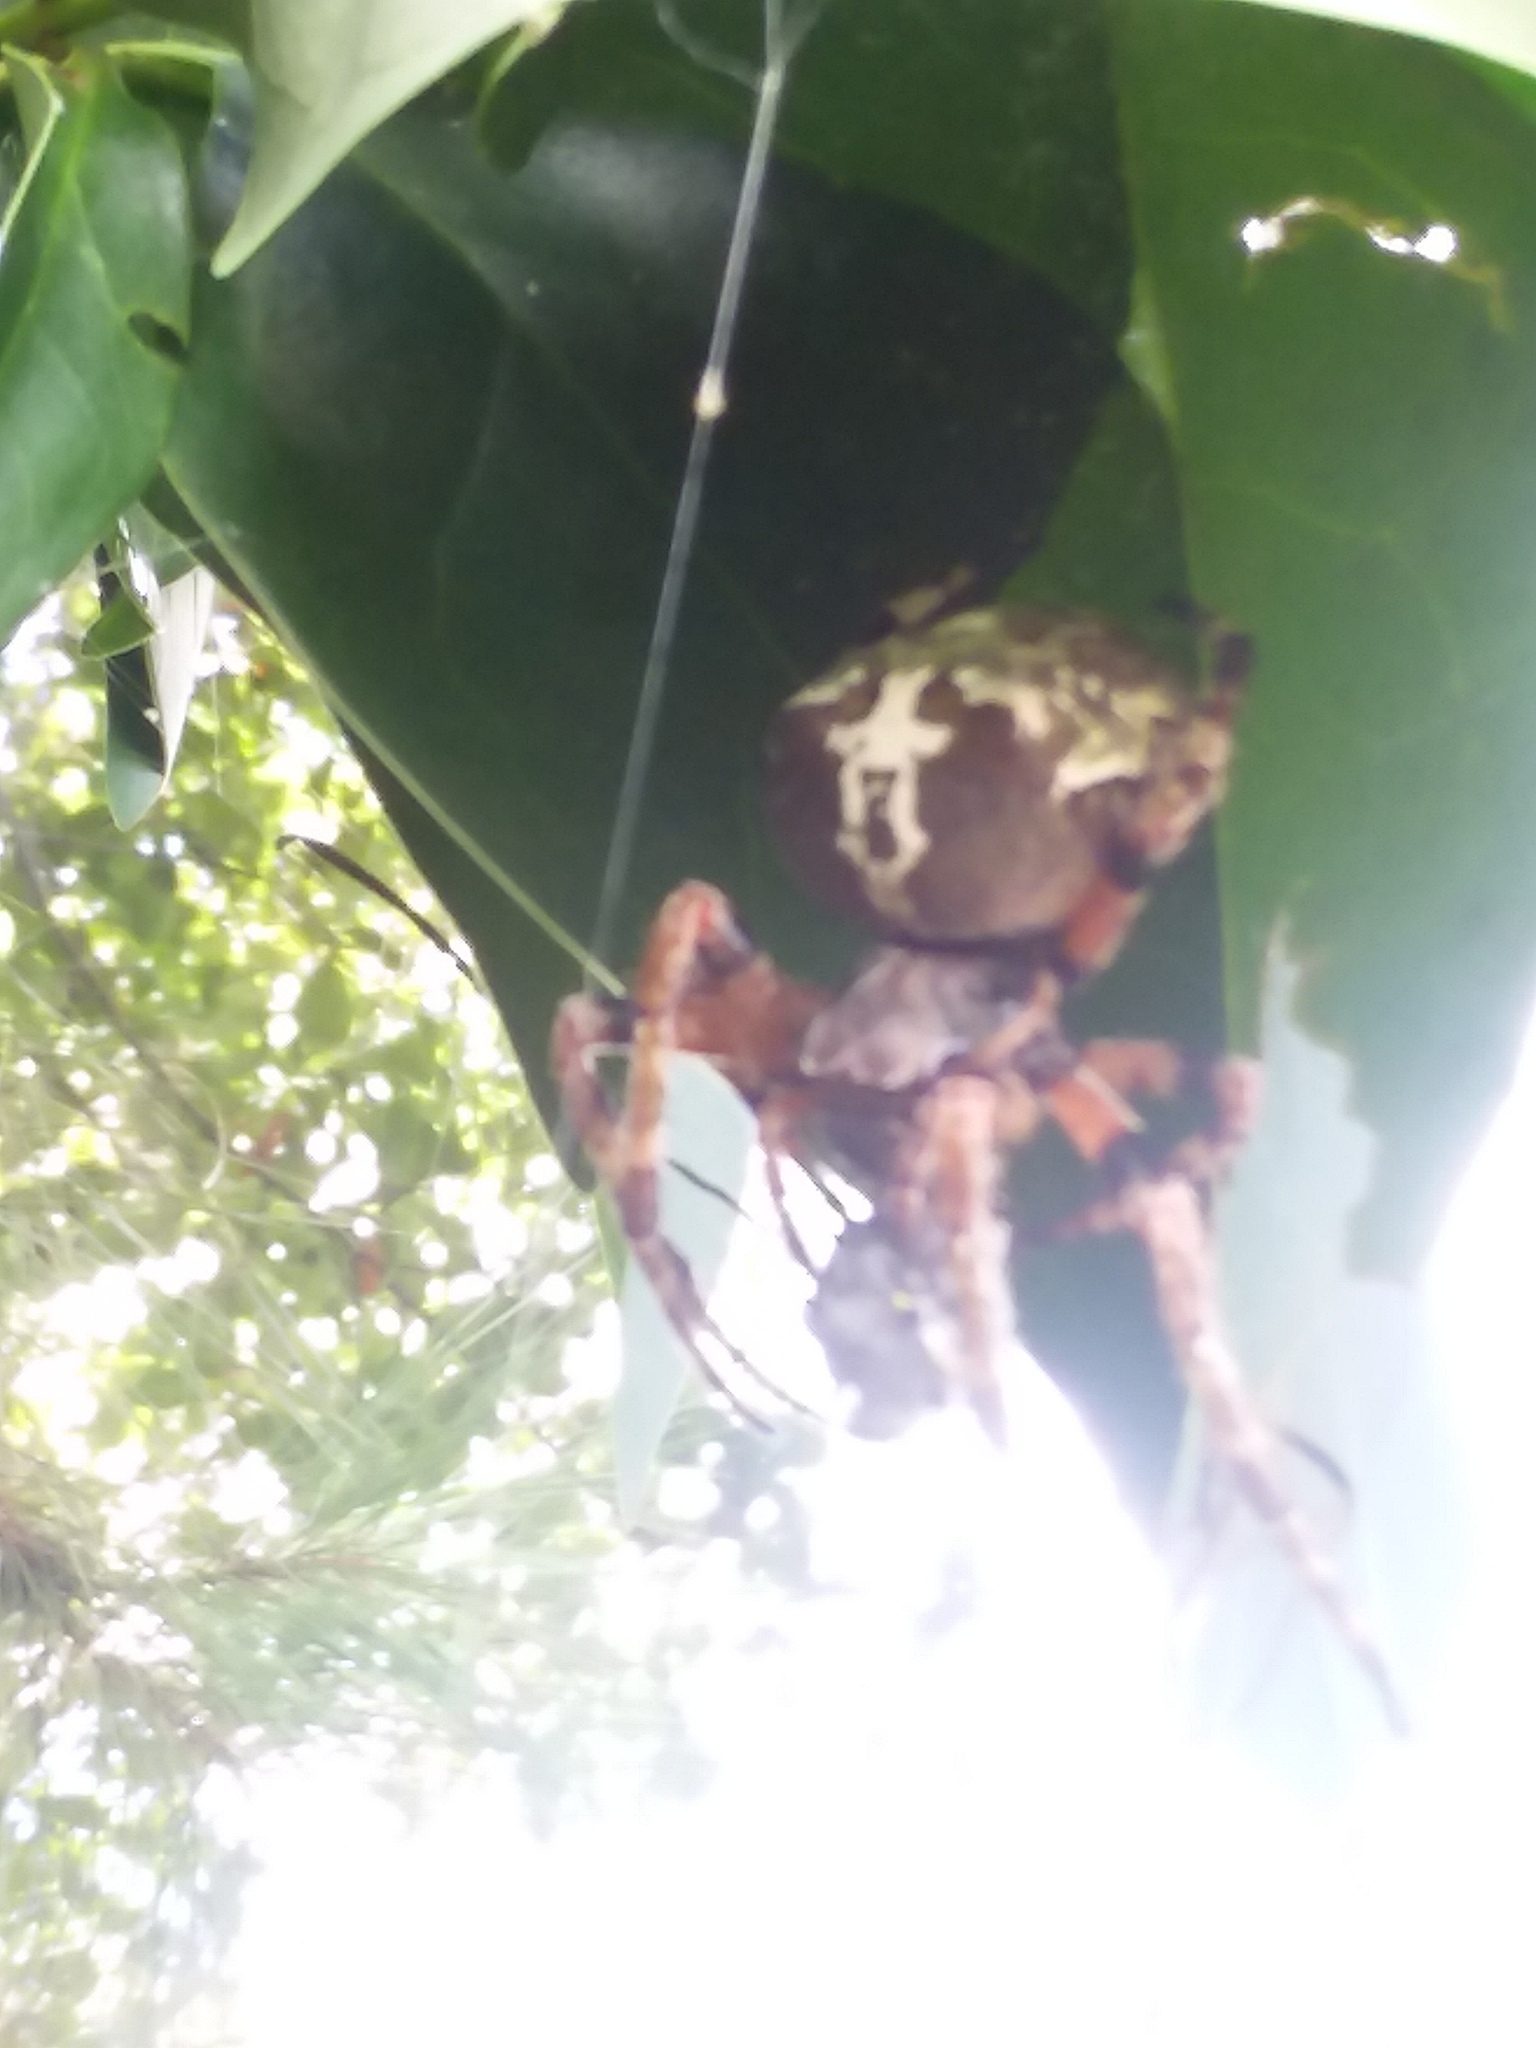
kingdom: Animalia
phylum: Arthropoda
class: Arachnida
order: Araneae
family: Araneidae
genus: Araneus
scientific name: Araneus bicentenarius
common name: Giant lichen orbweaver
